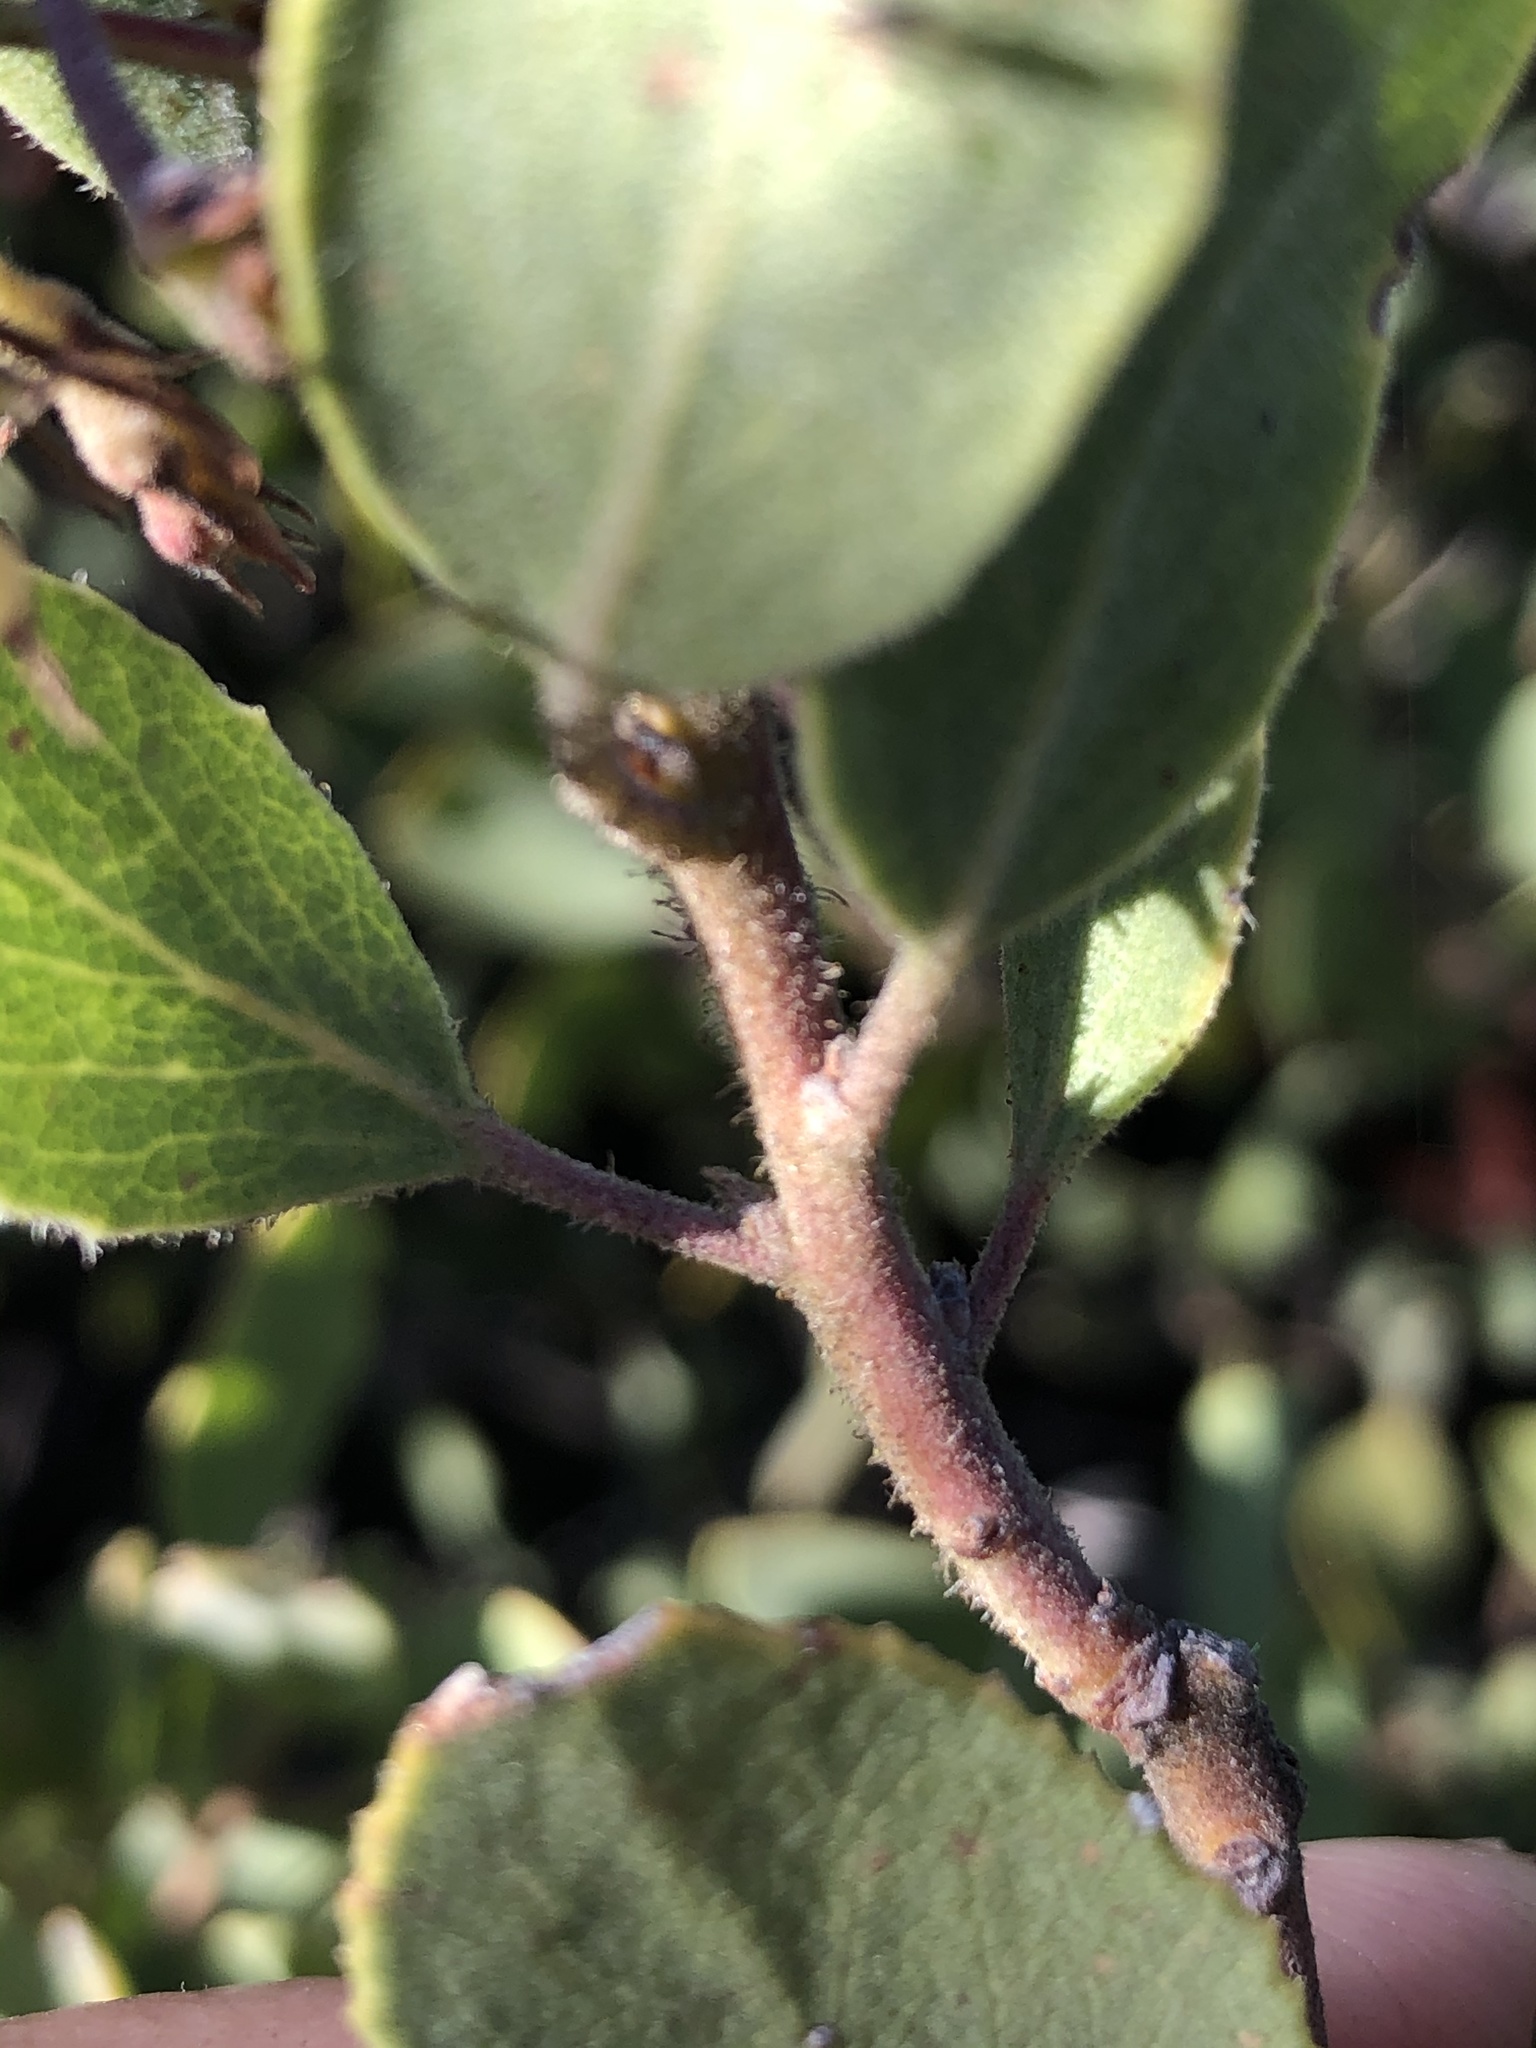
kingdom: Plantae
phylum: Tracheophyta
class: Magnoliopsida
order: Ericales
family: Ericaceae
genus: Arctostaphylos
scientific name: Arctostaphylos glandulosa
